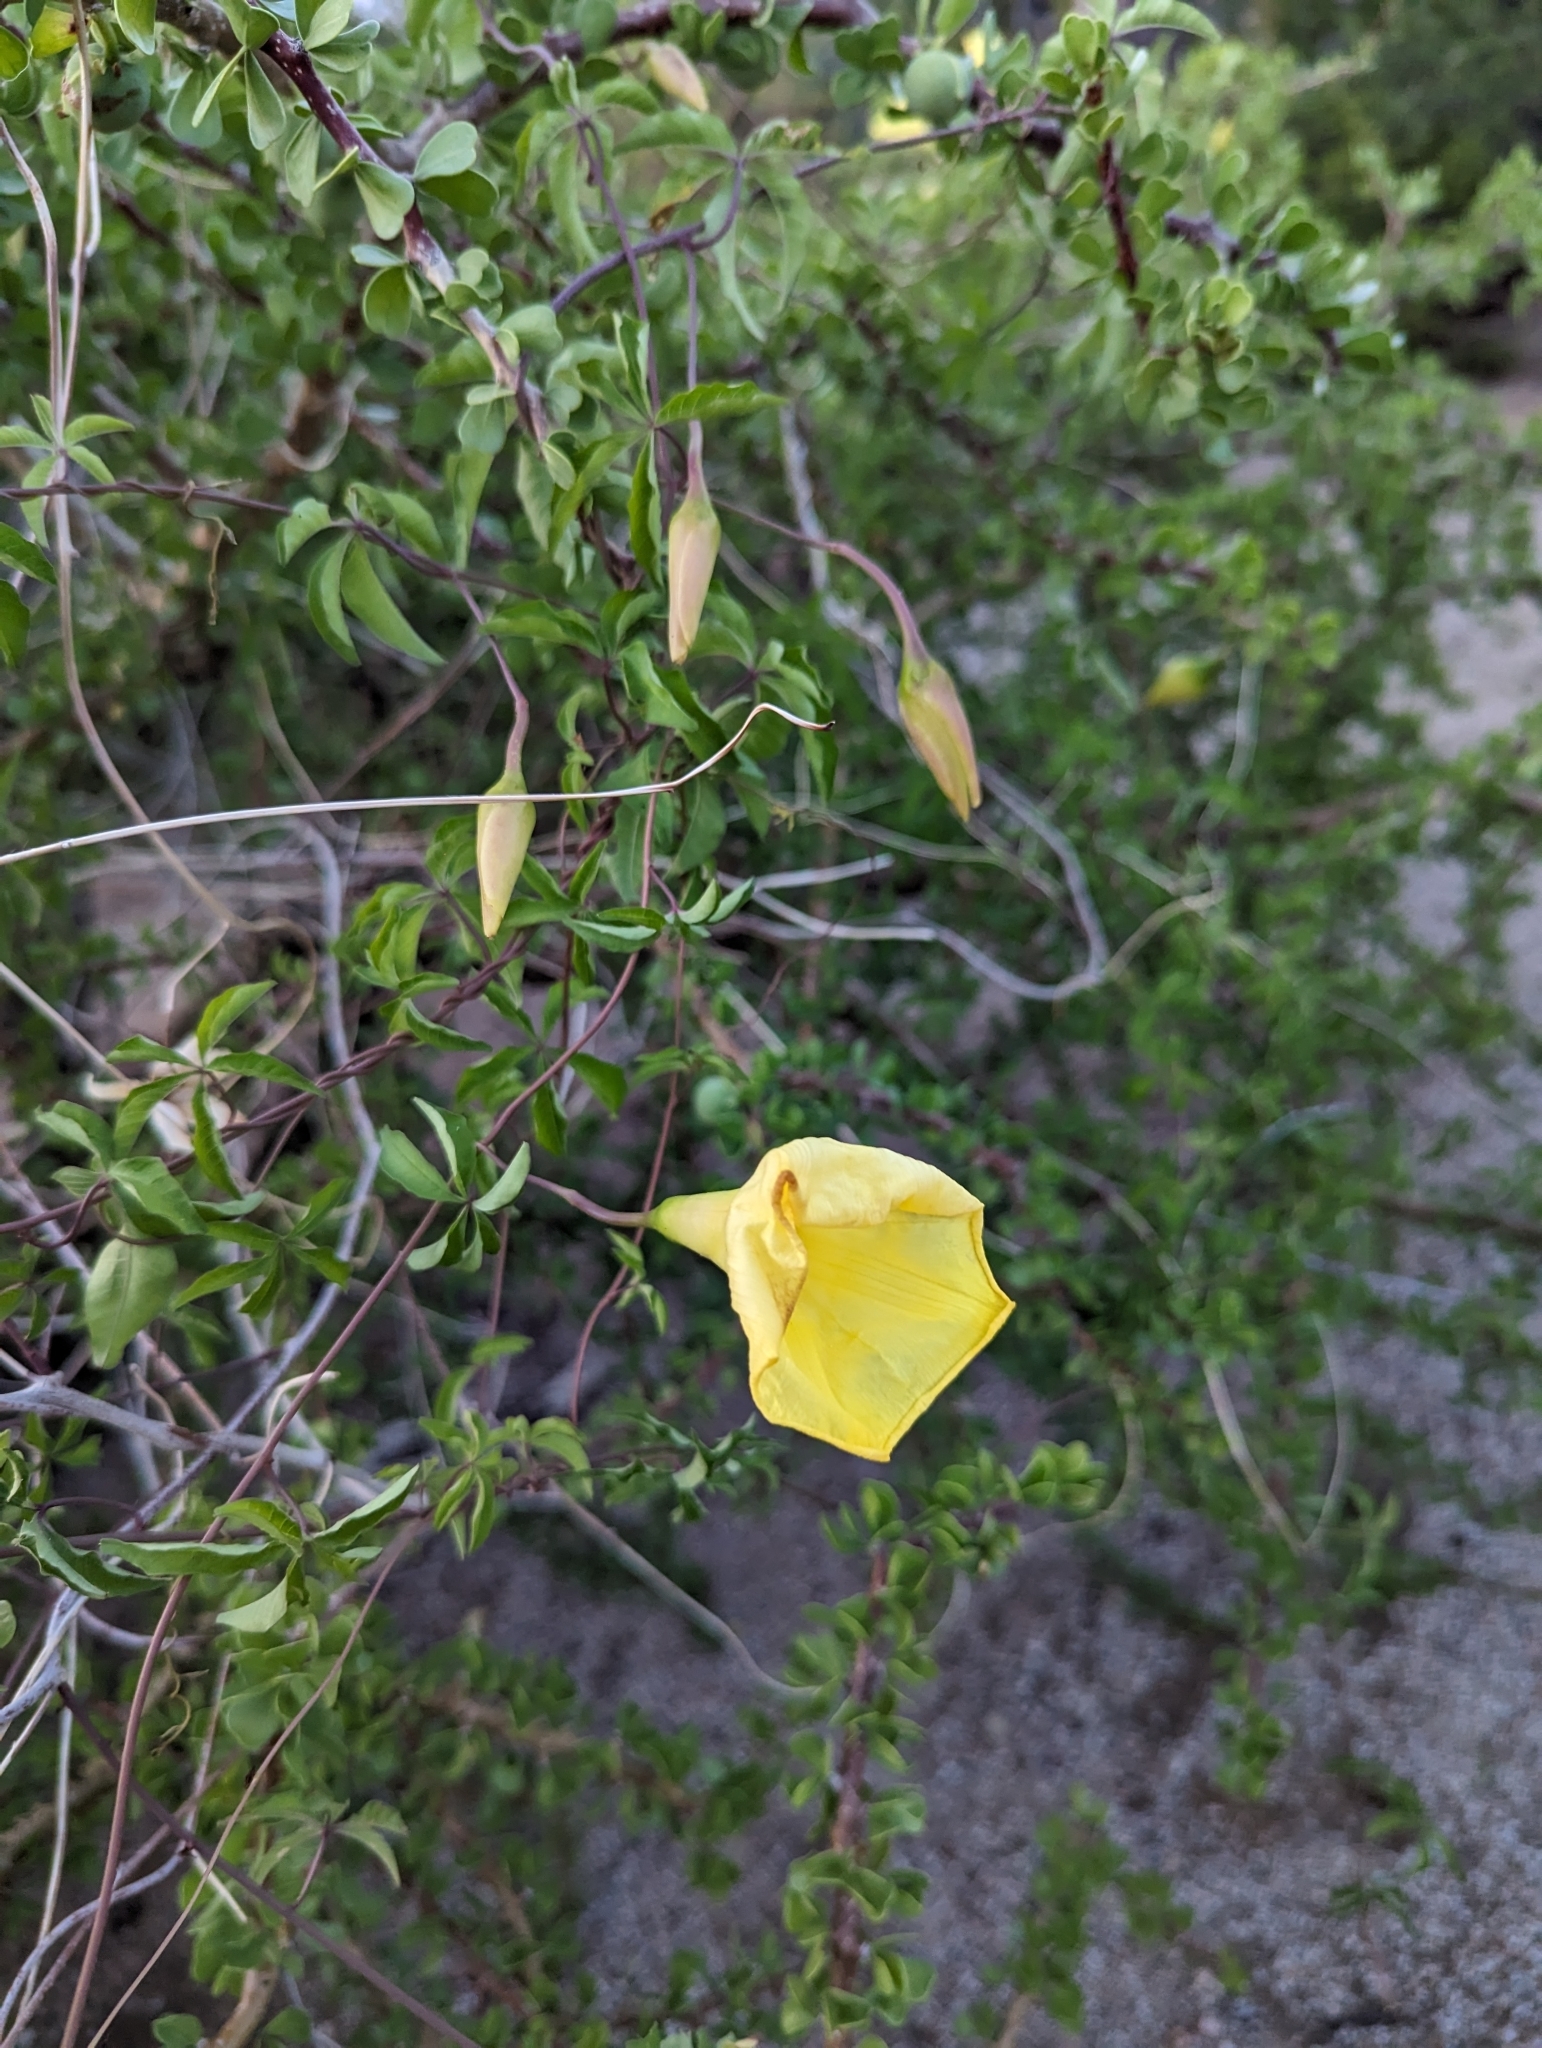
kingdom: Plantae
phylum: Tracheophyta
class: Magnoliopsida
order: Solanales
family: Convolvulaceae
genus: Distimake
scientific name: Distimake aureus
